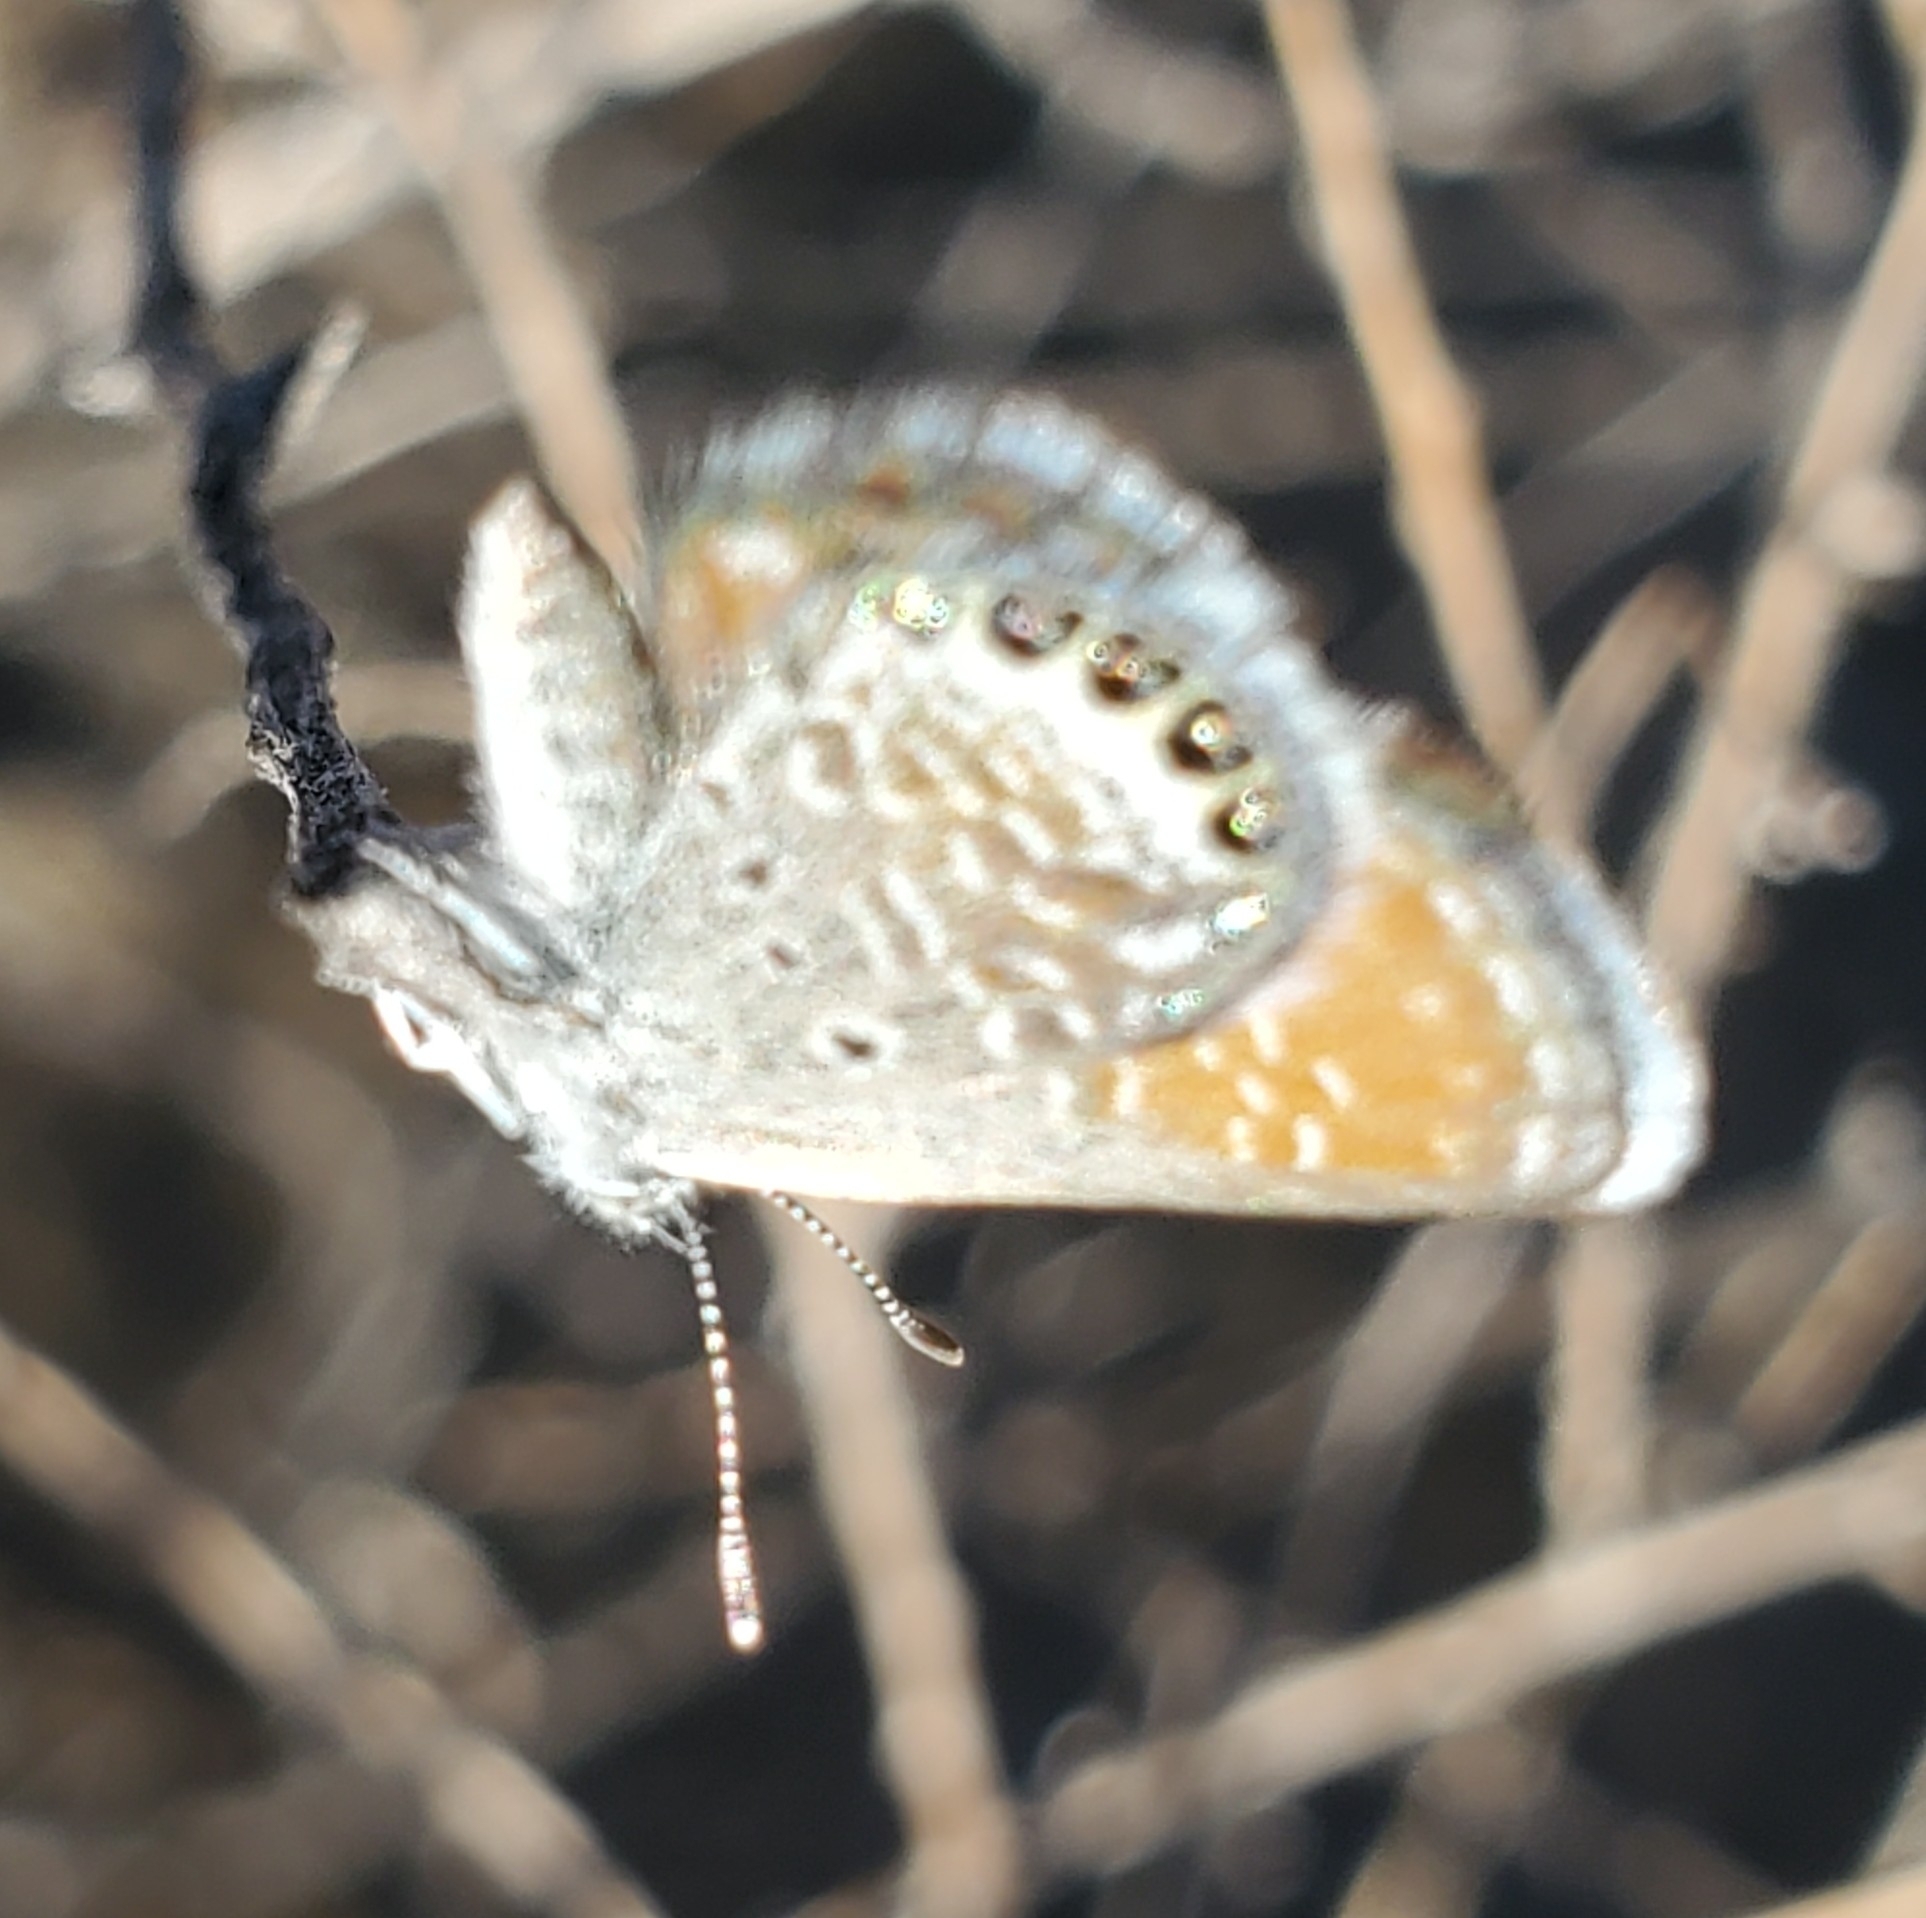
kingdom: Animalia
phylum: Arthropoda
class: Insecta
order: Lepidoptera
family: Lycaenidae
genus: Brephidium
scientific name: Brephidium exilis
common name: Pygmy blue
